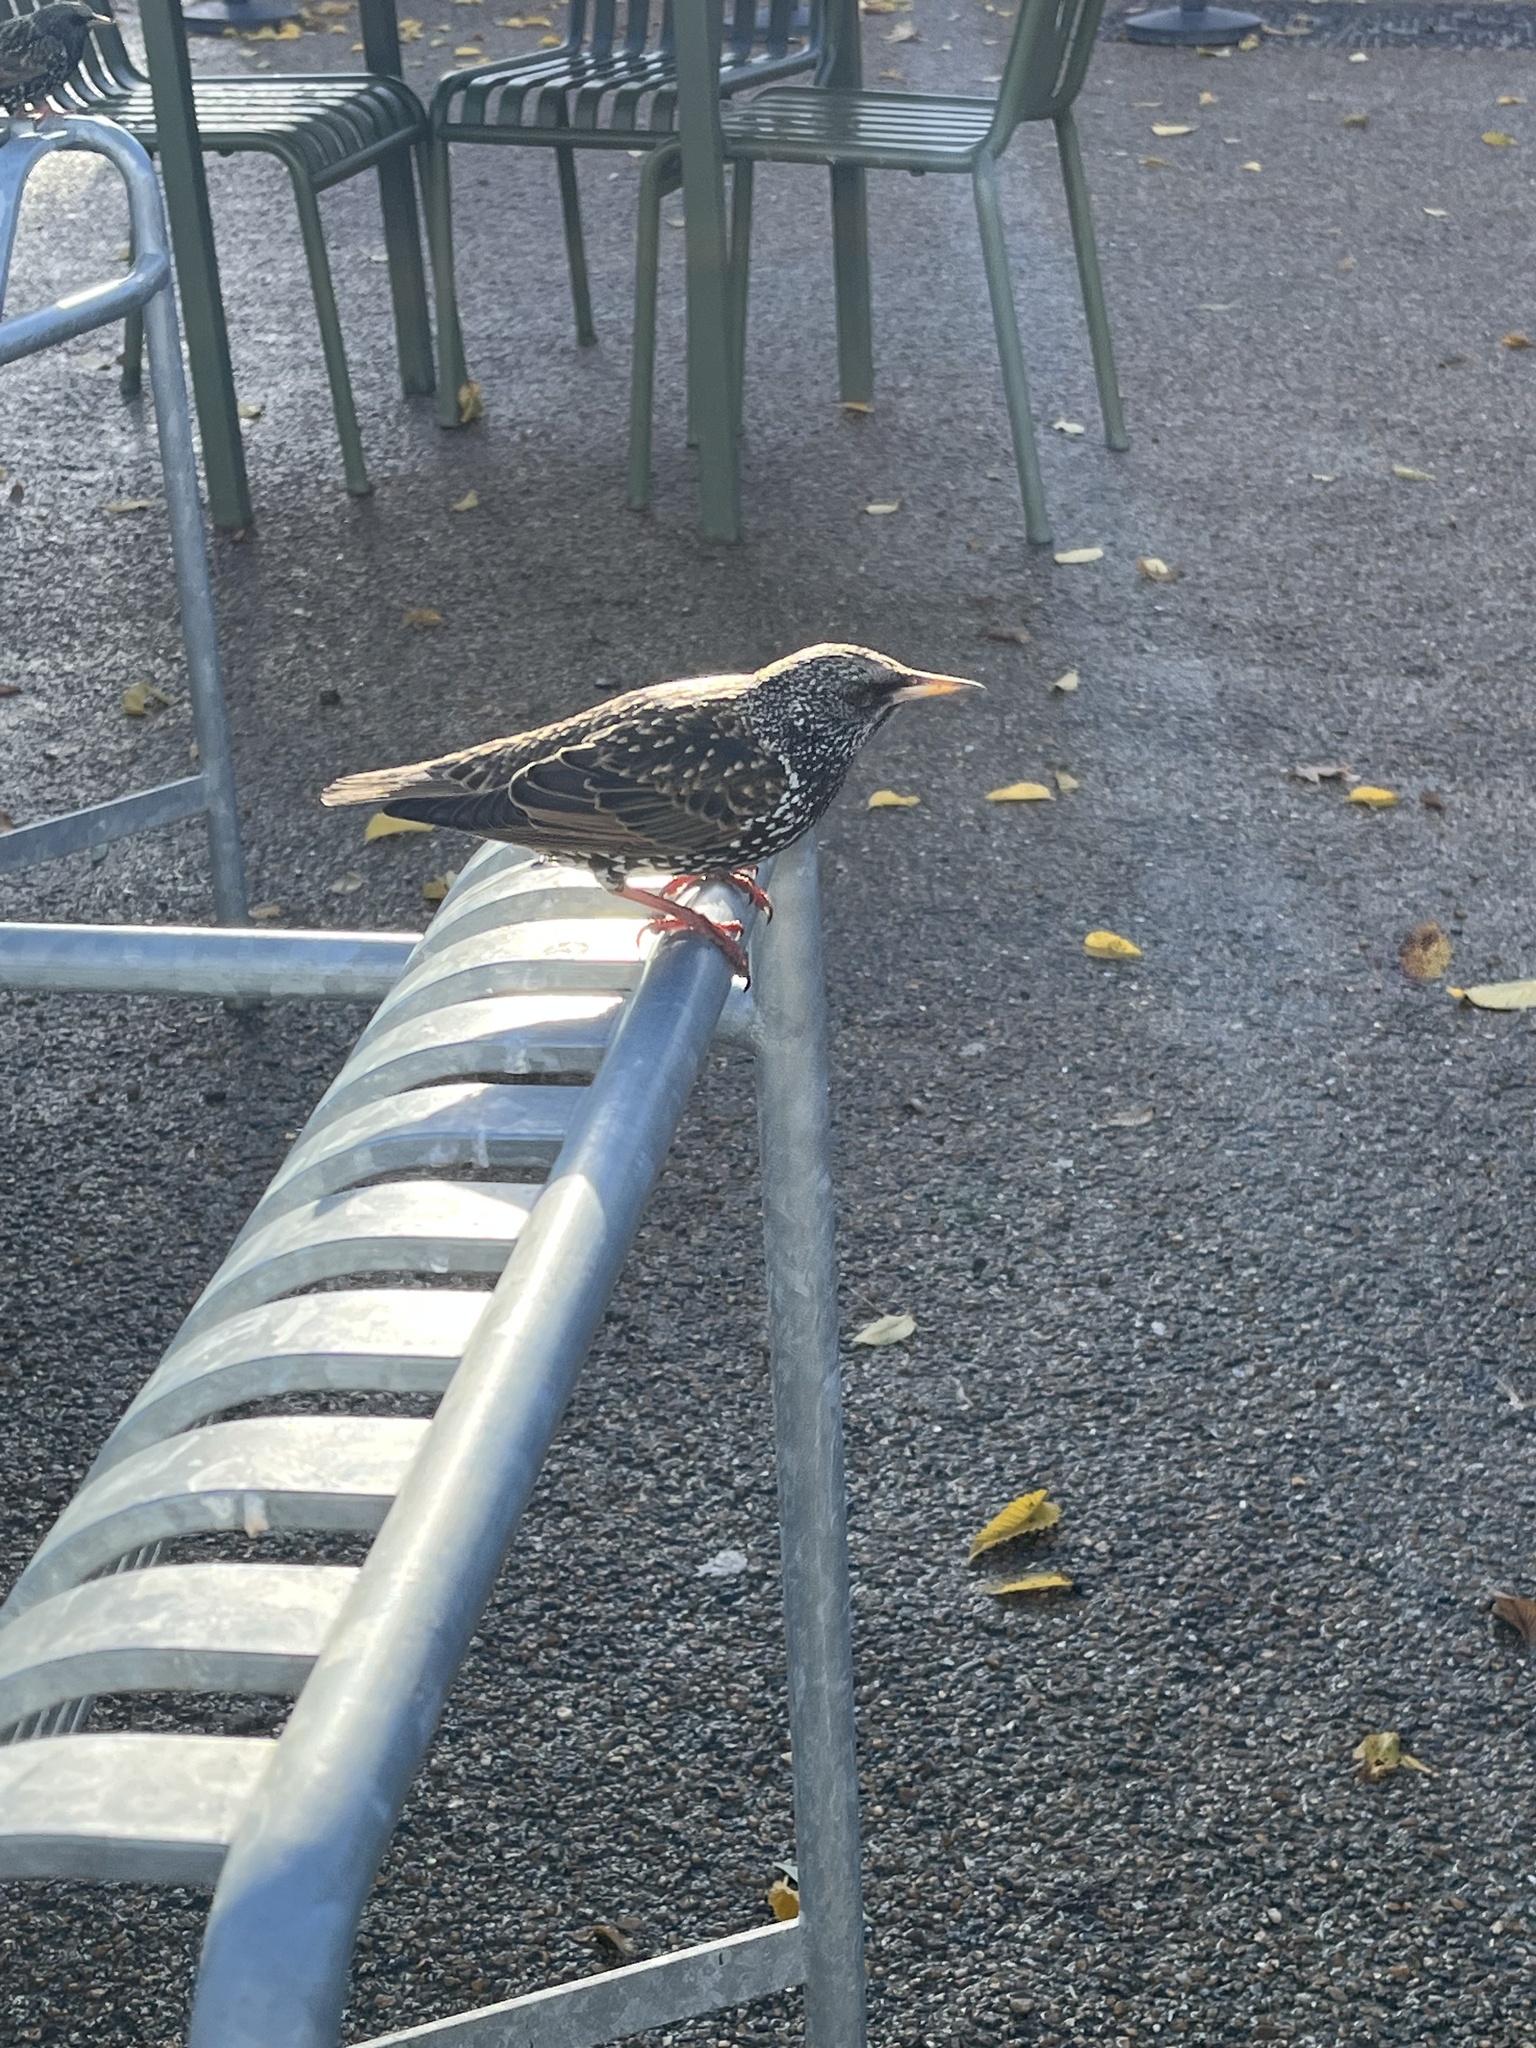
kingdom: Animalia
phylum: Chordata
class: Aves
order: Passeriformes
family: Sturnidae
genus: Sturnus
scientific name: Sturnus vulgaris
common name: Common starling
